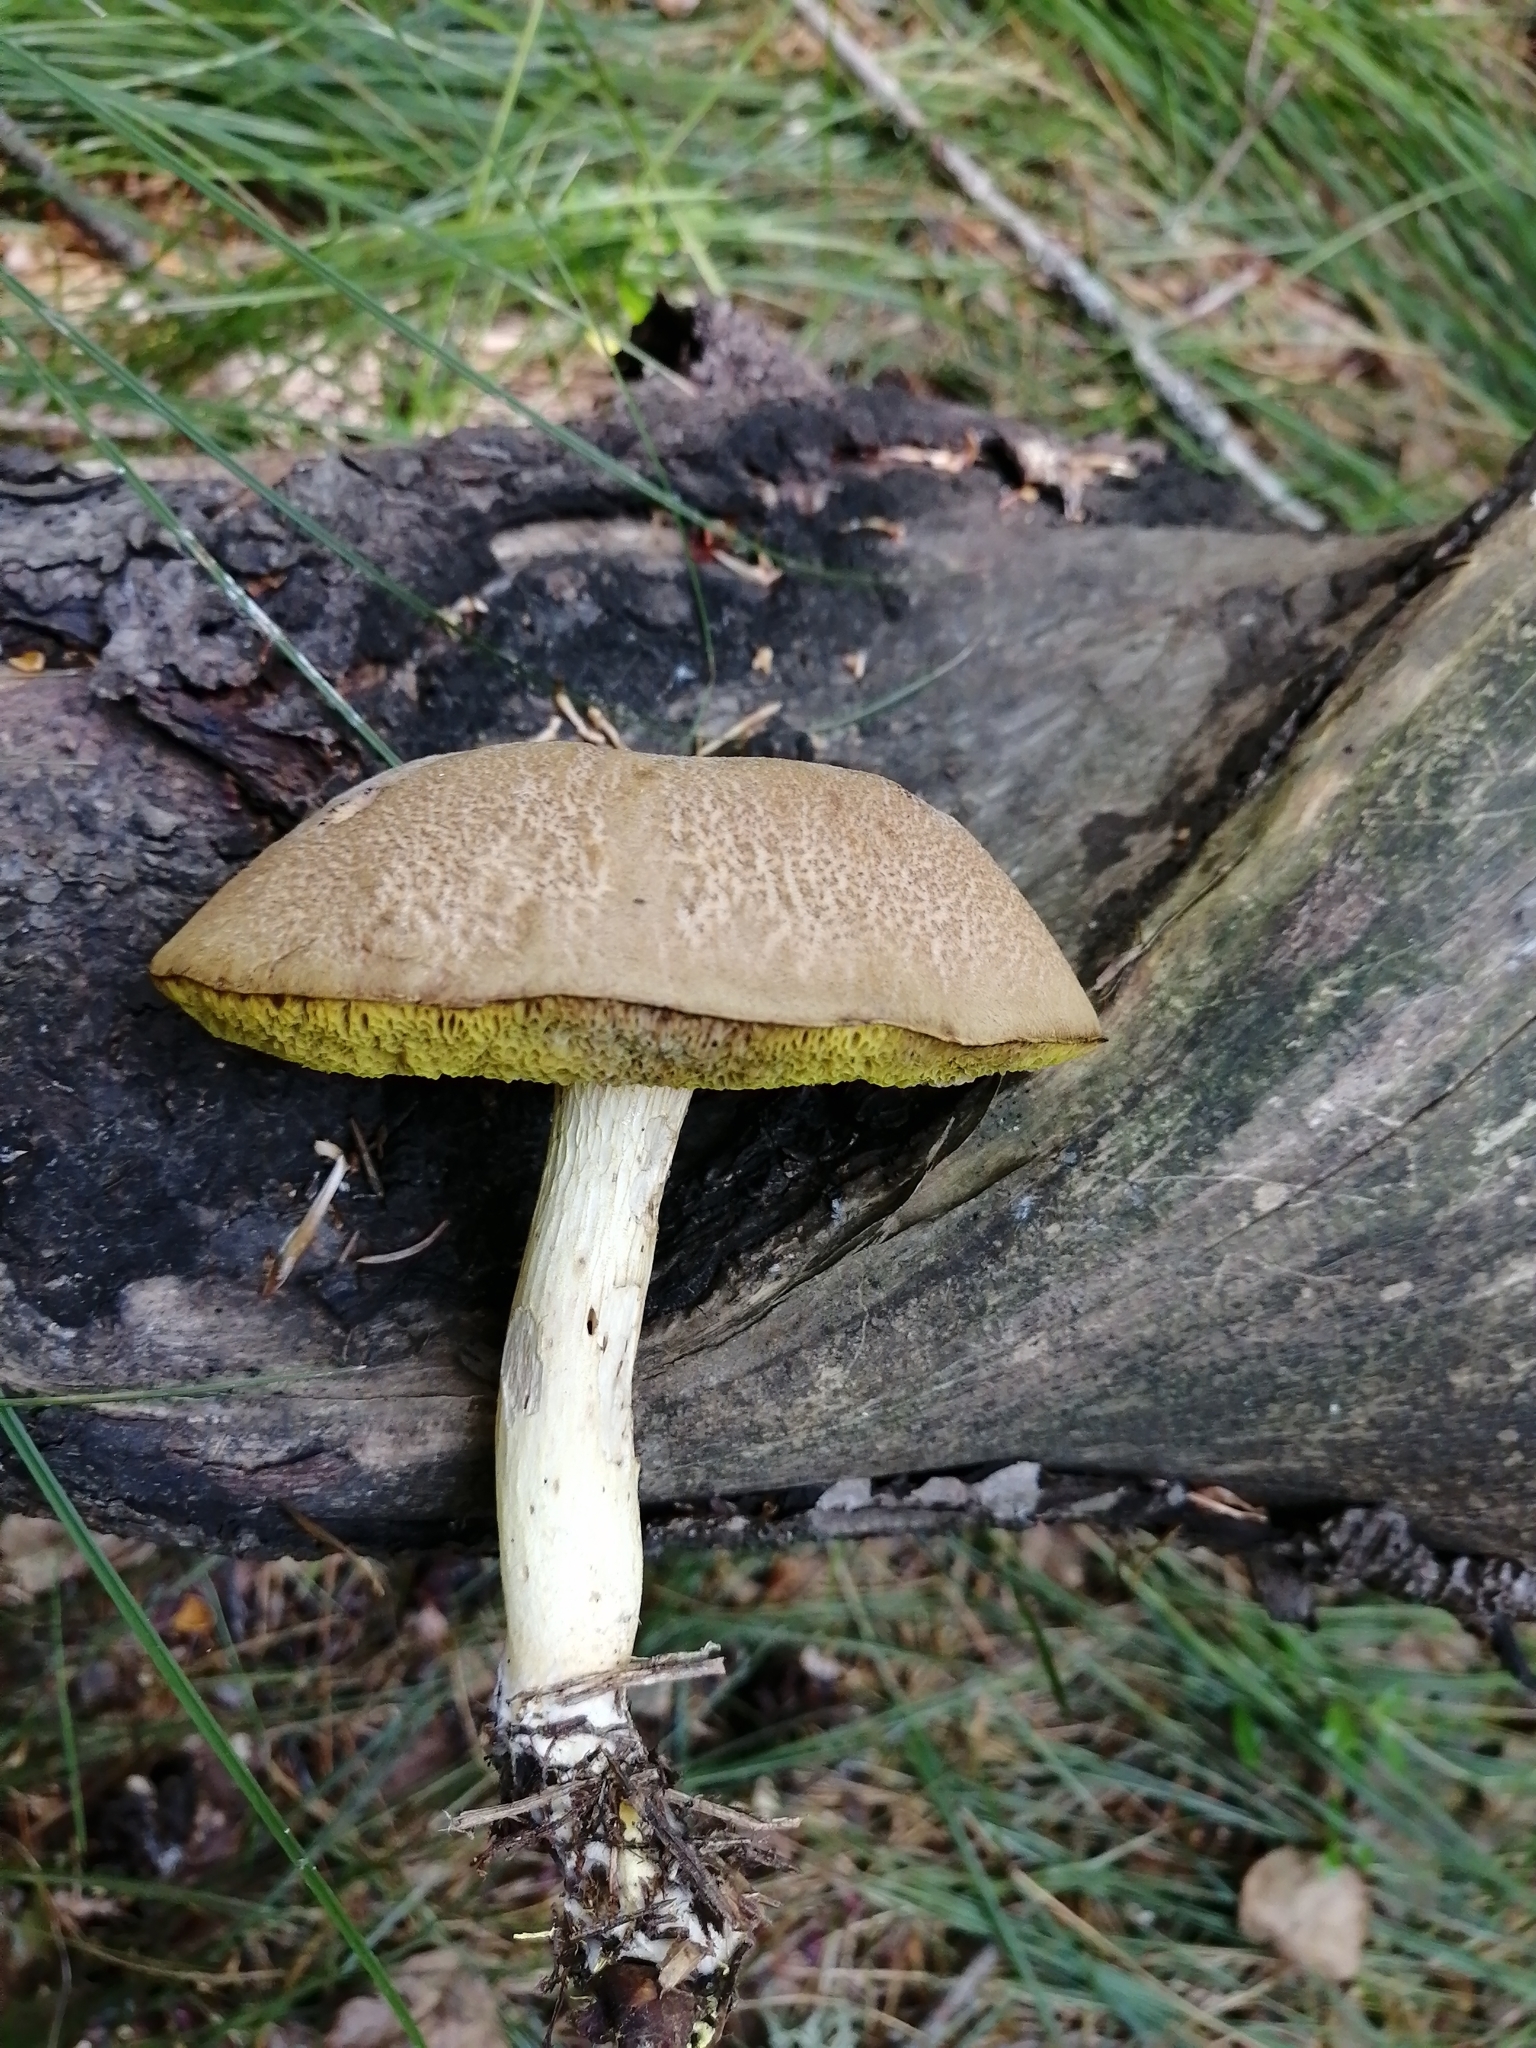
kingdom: Fungi
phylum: Basidiomycota
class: Agaricomycetes
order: Boletales
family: Boletaceae
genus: Xerocomus
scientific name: Xerocomus subtomentosus
